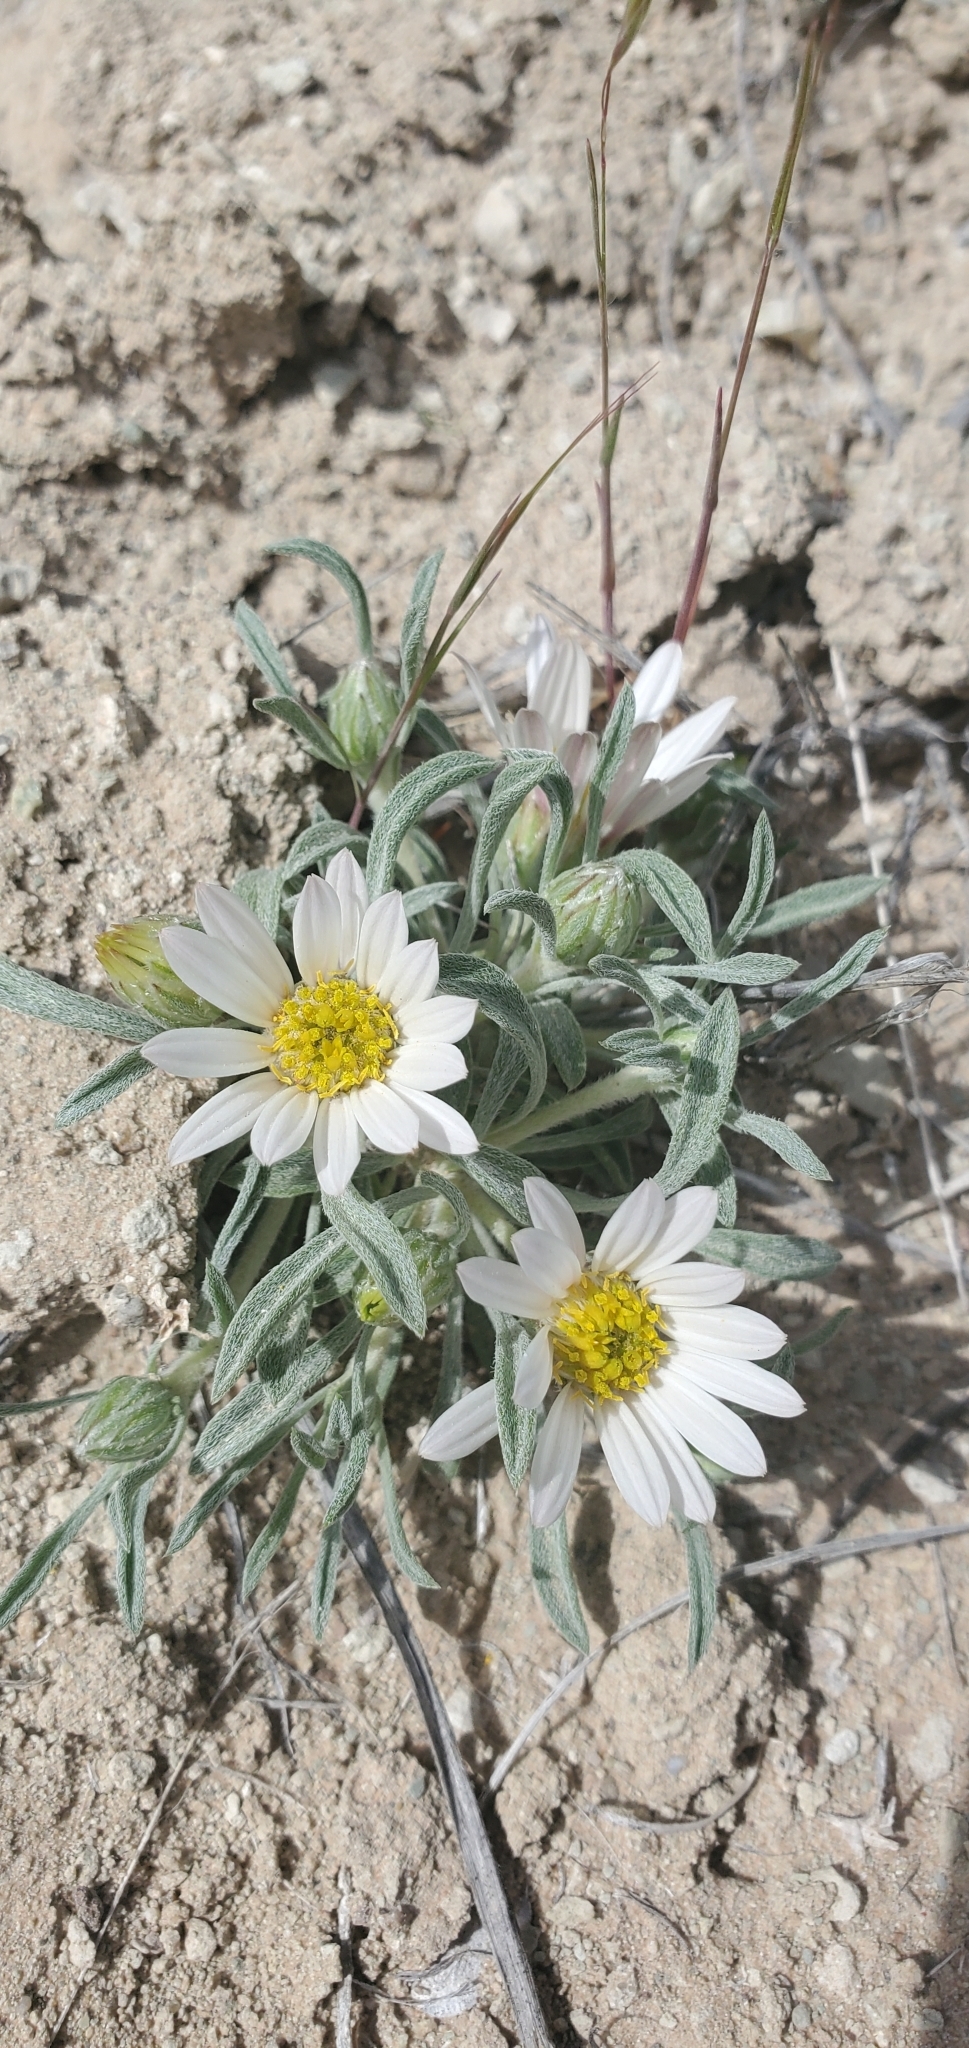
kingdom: Plantae
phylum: Tracheophyta
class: Magnoliopsida
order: Asterales
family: Asteraceae
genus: Townsendia
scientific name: Townsendia incana
